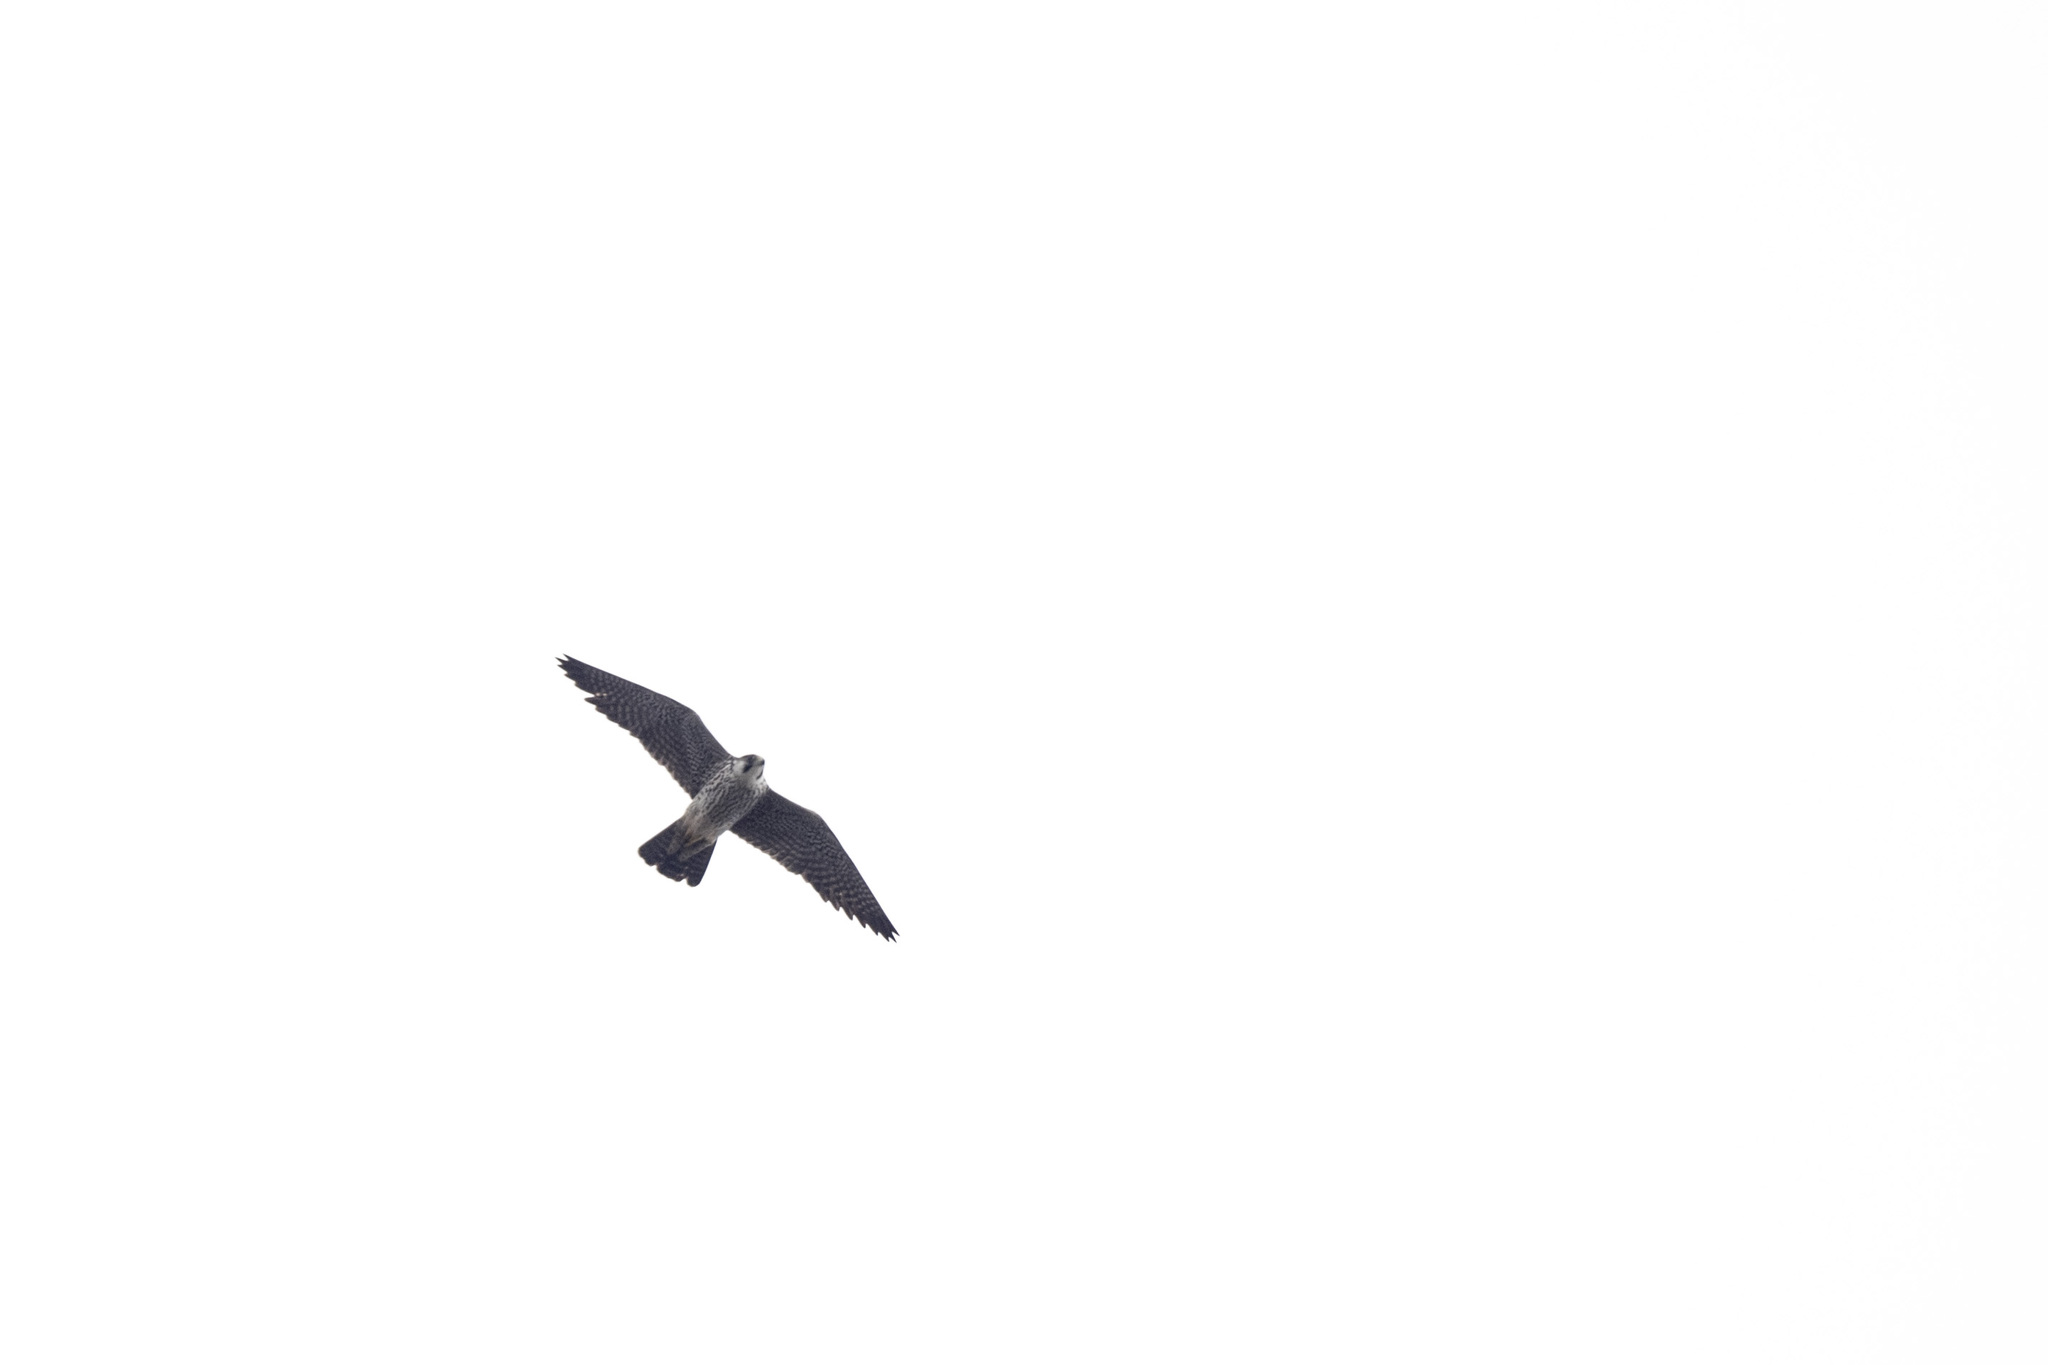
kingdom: Animalia
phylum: Chordata
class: Aves
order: Falconiformes
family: Falconidae
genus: Falco
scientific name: Falco peregrinus
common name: Peregrine falcon
